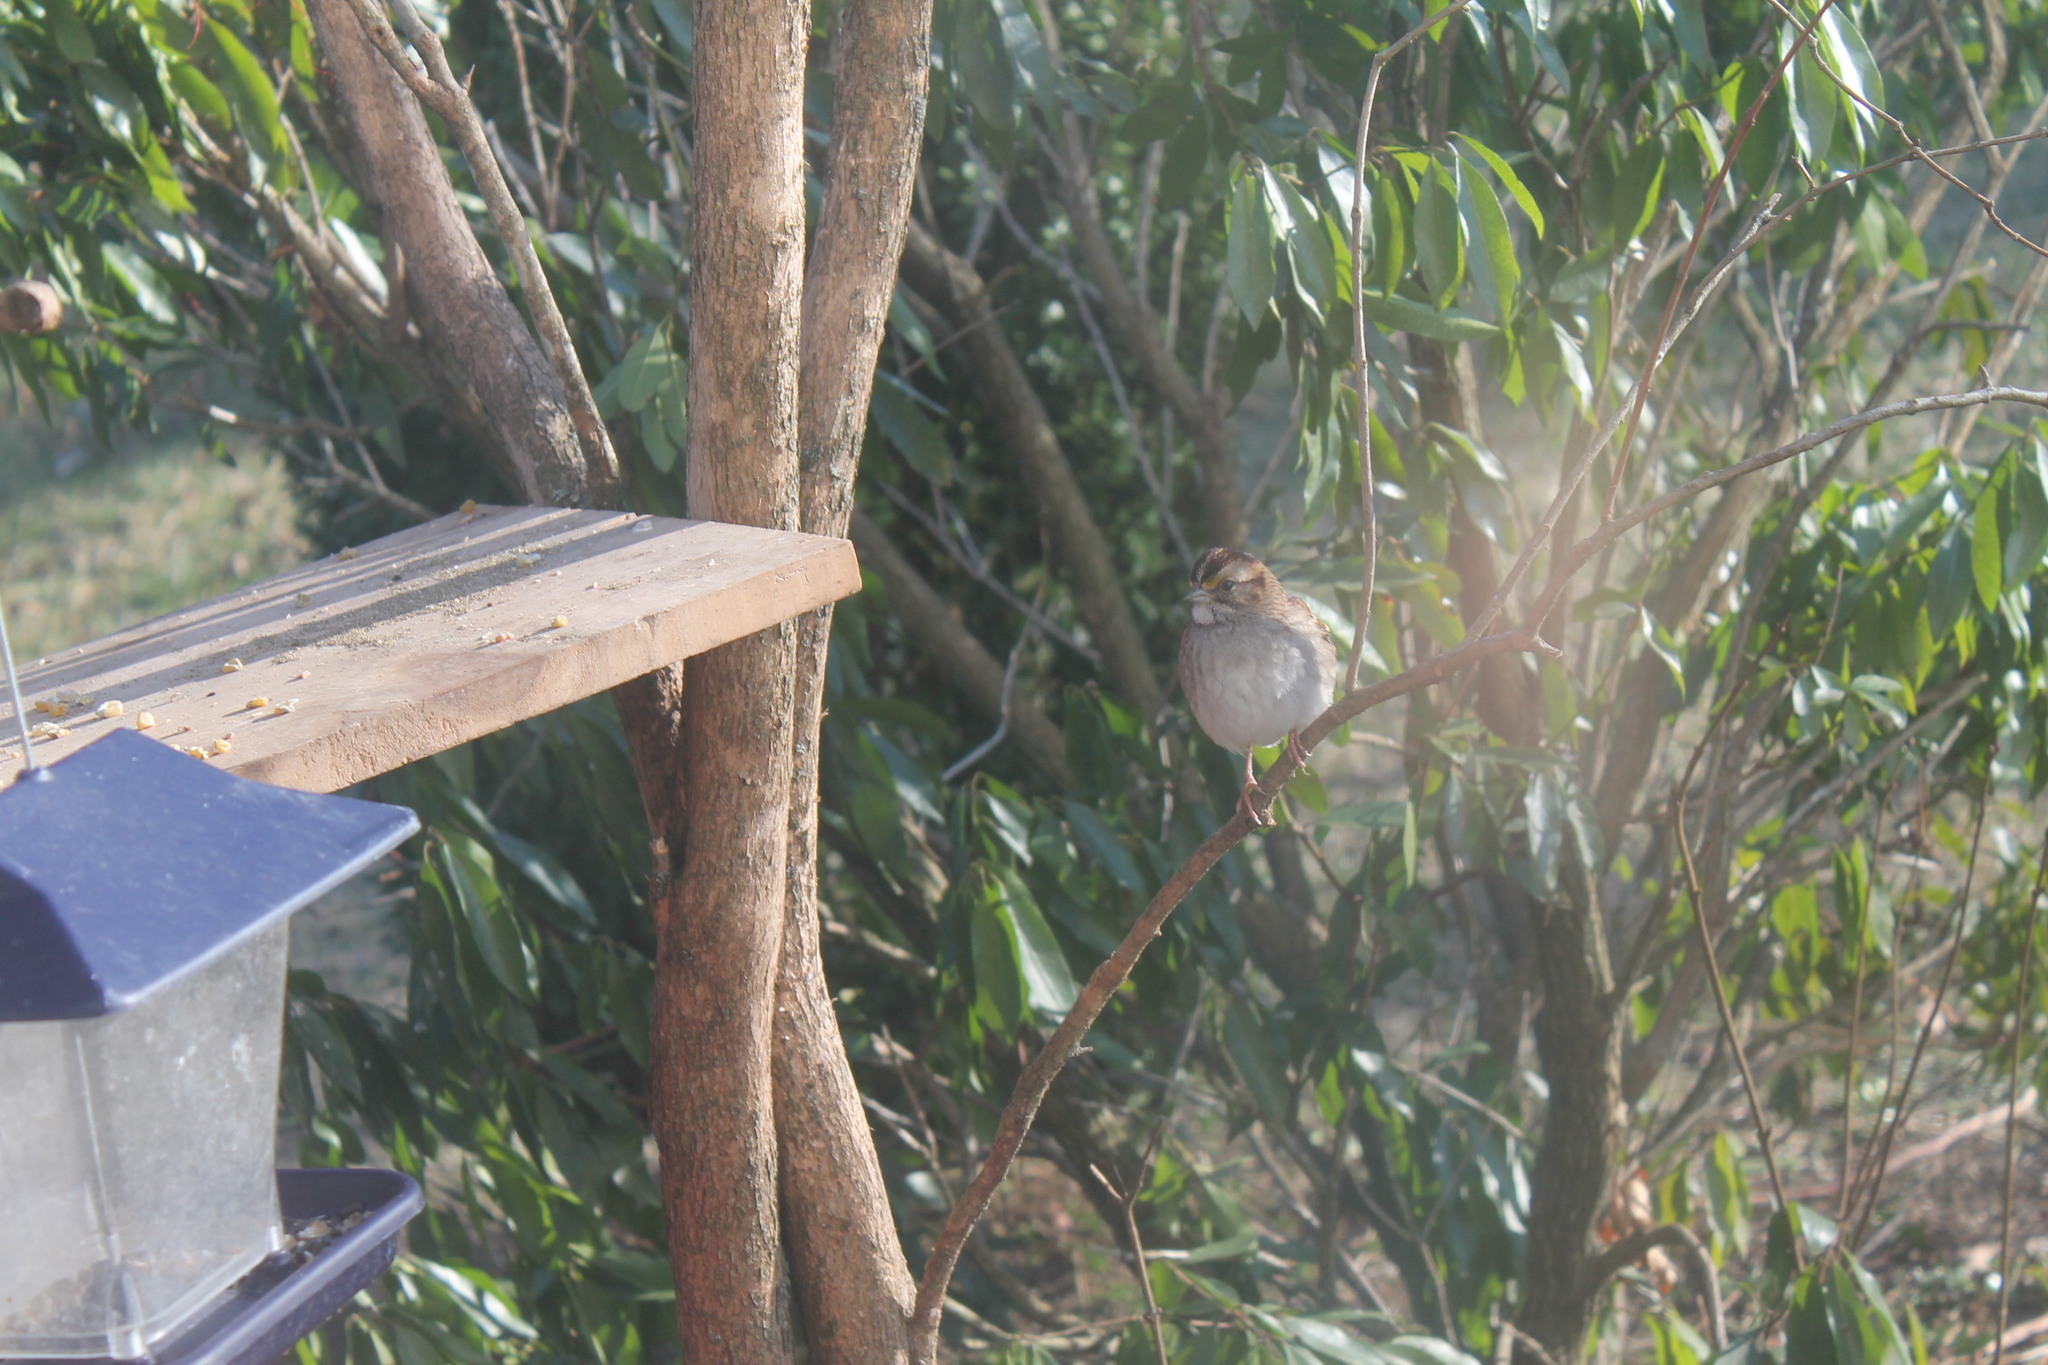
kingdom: Animalia
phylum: Chordata
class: Aves
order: Passeriformes
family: Passerellidae
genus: Zonotrichia
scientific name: Zonotrichia albicollis
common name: White-throated sparrow
